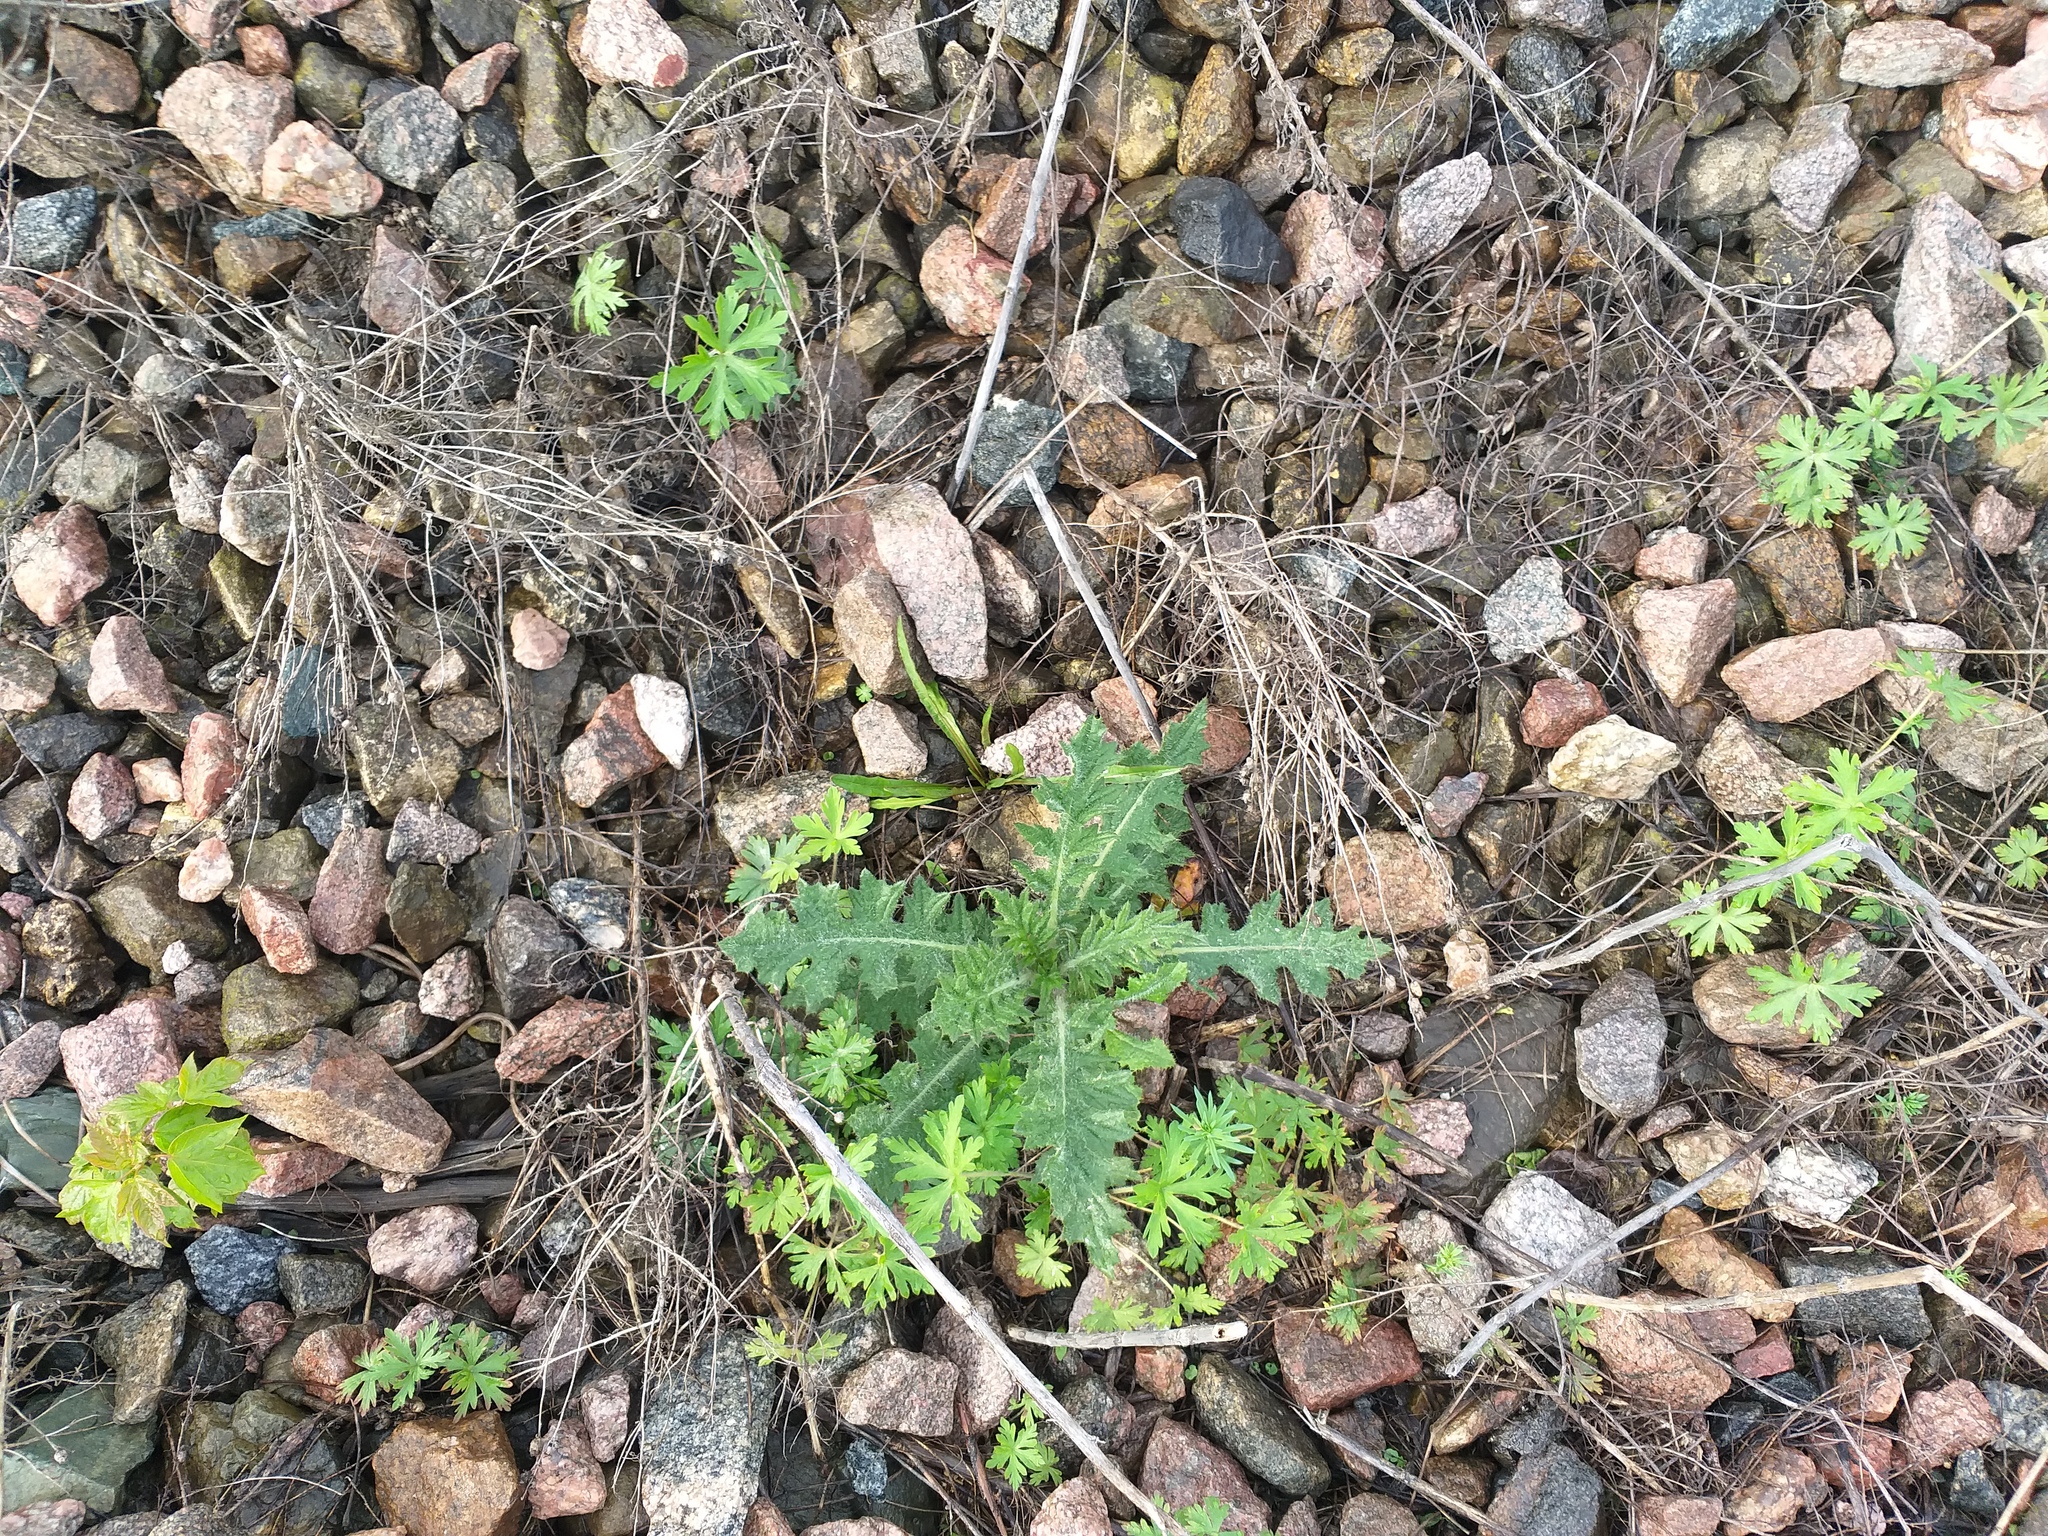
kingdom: Plantae
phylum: Tracheophyta
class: Magnoliopsida
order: Asterales
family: Asteraceae
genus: Cirsium
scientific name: Cirsium vulgare
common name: Bull thistle
